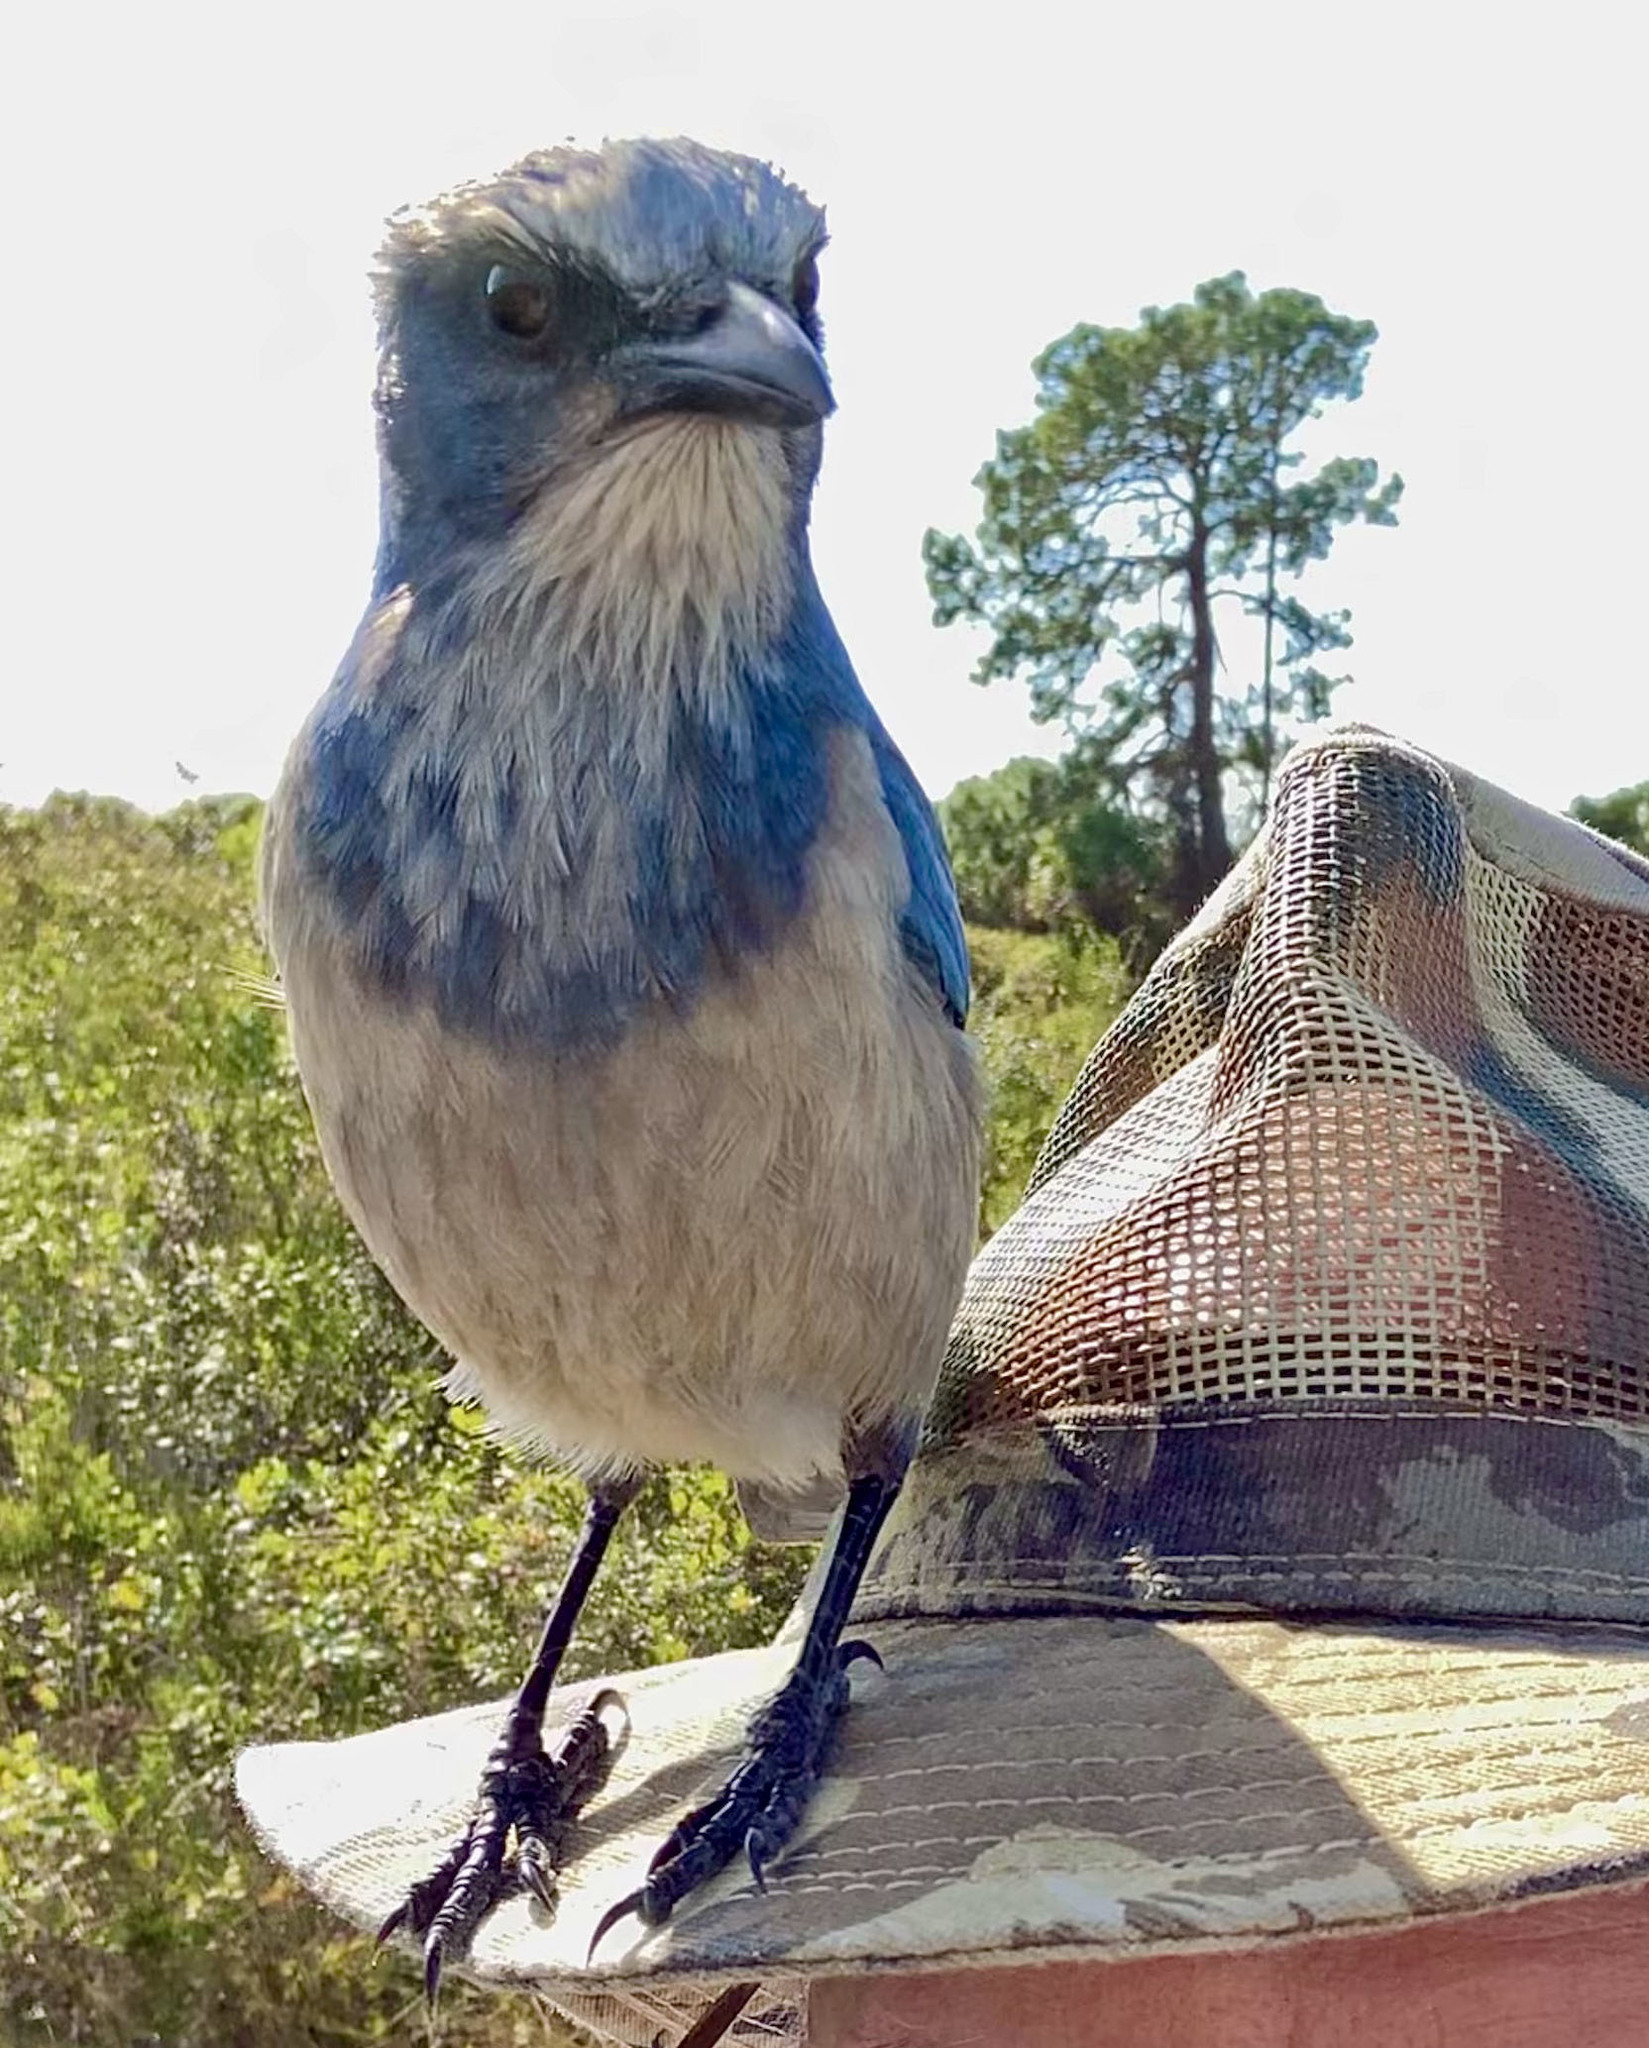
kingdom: Animalia
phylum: Chordata
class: Aves
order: Passeriformes
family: Corvidae
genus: Aphelocoma
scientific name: Aphelocoma coerulescens
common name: Florida scrub jay
